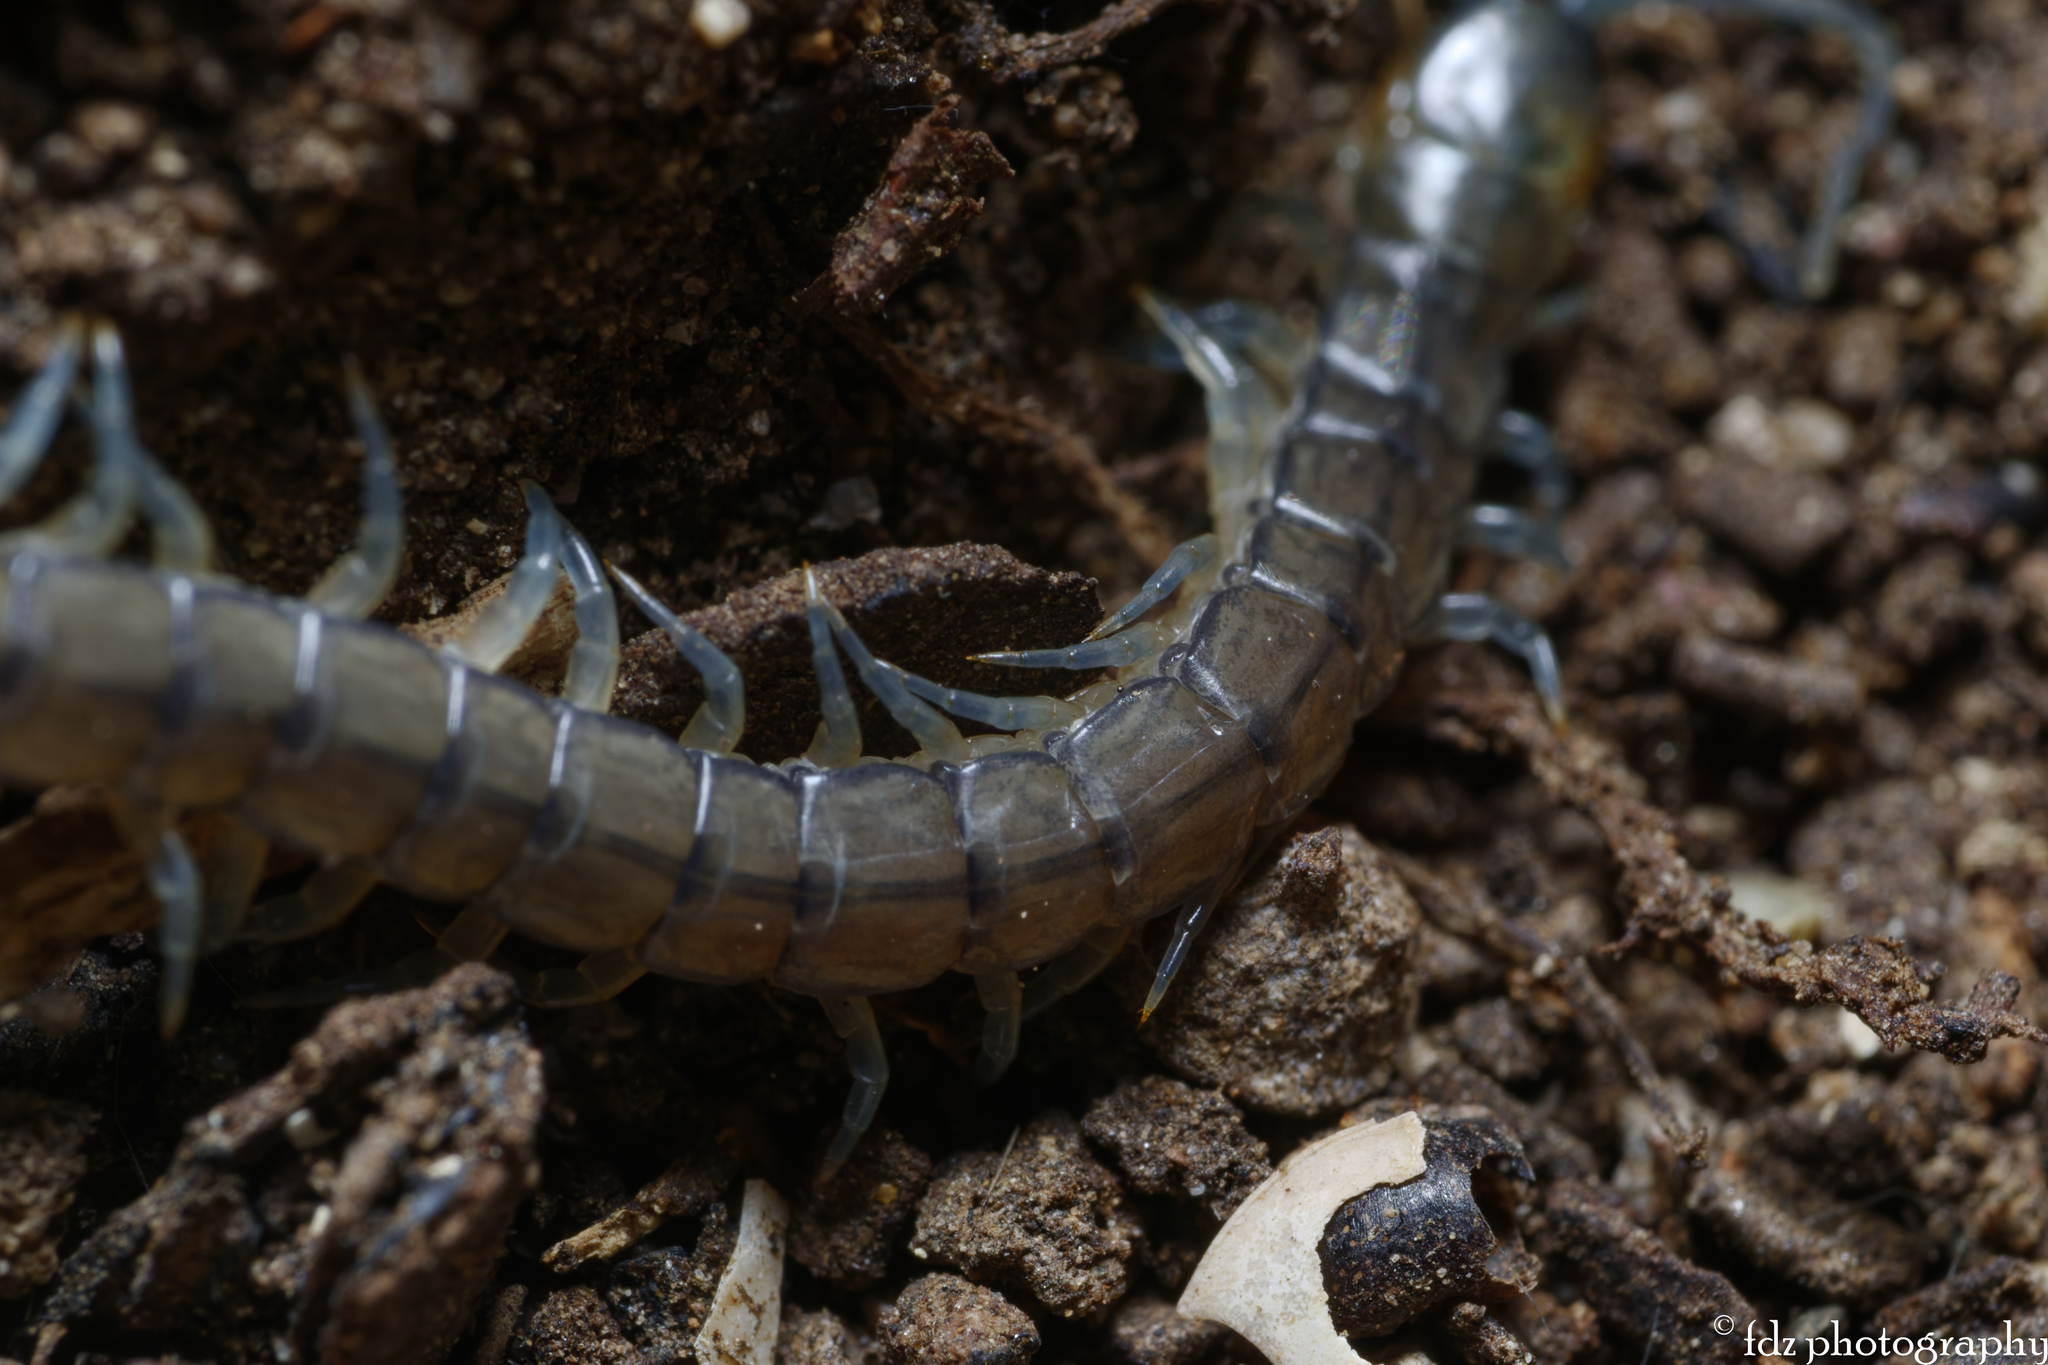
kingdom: Animalia
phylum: Arthropoda
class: Chilopoda
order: Scolopendromorpha
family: Scolopendridae
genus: Scolopendra
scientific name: Scolopendra oraniensis
